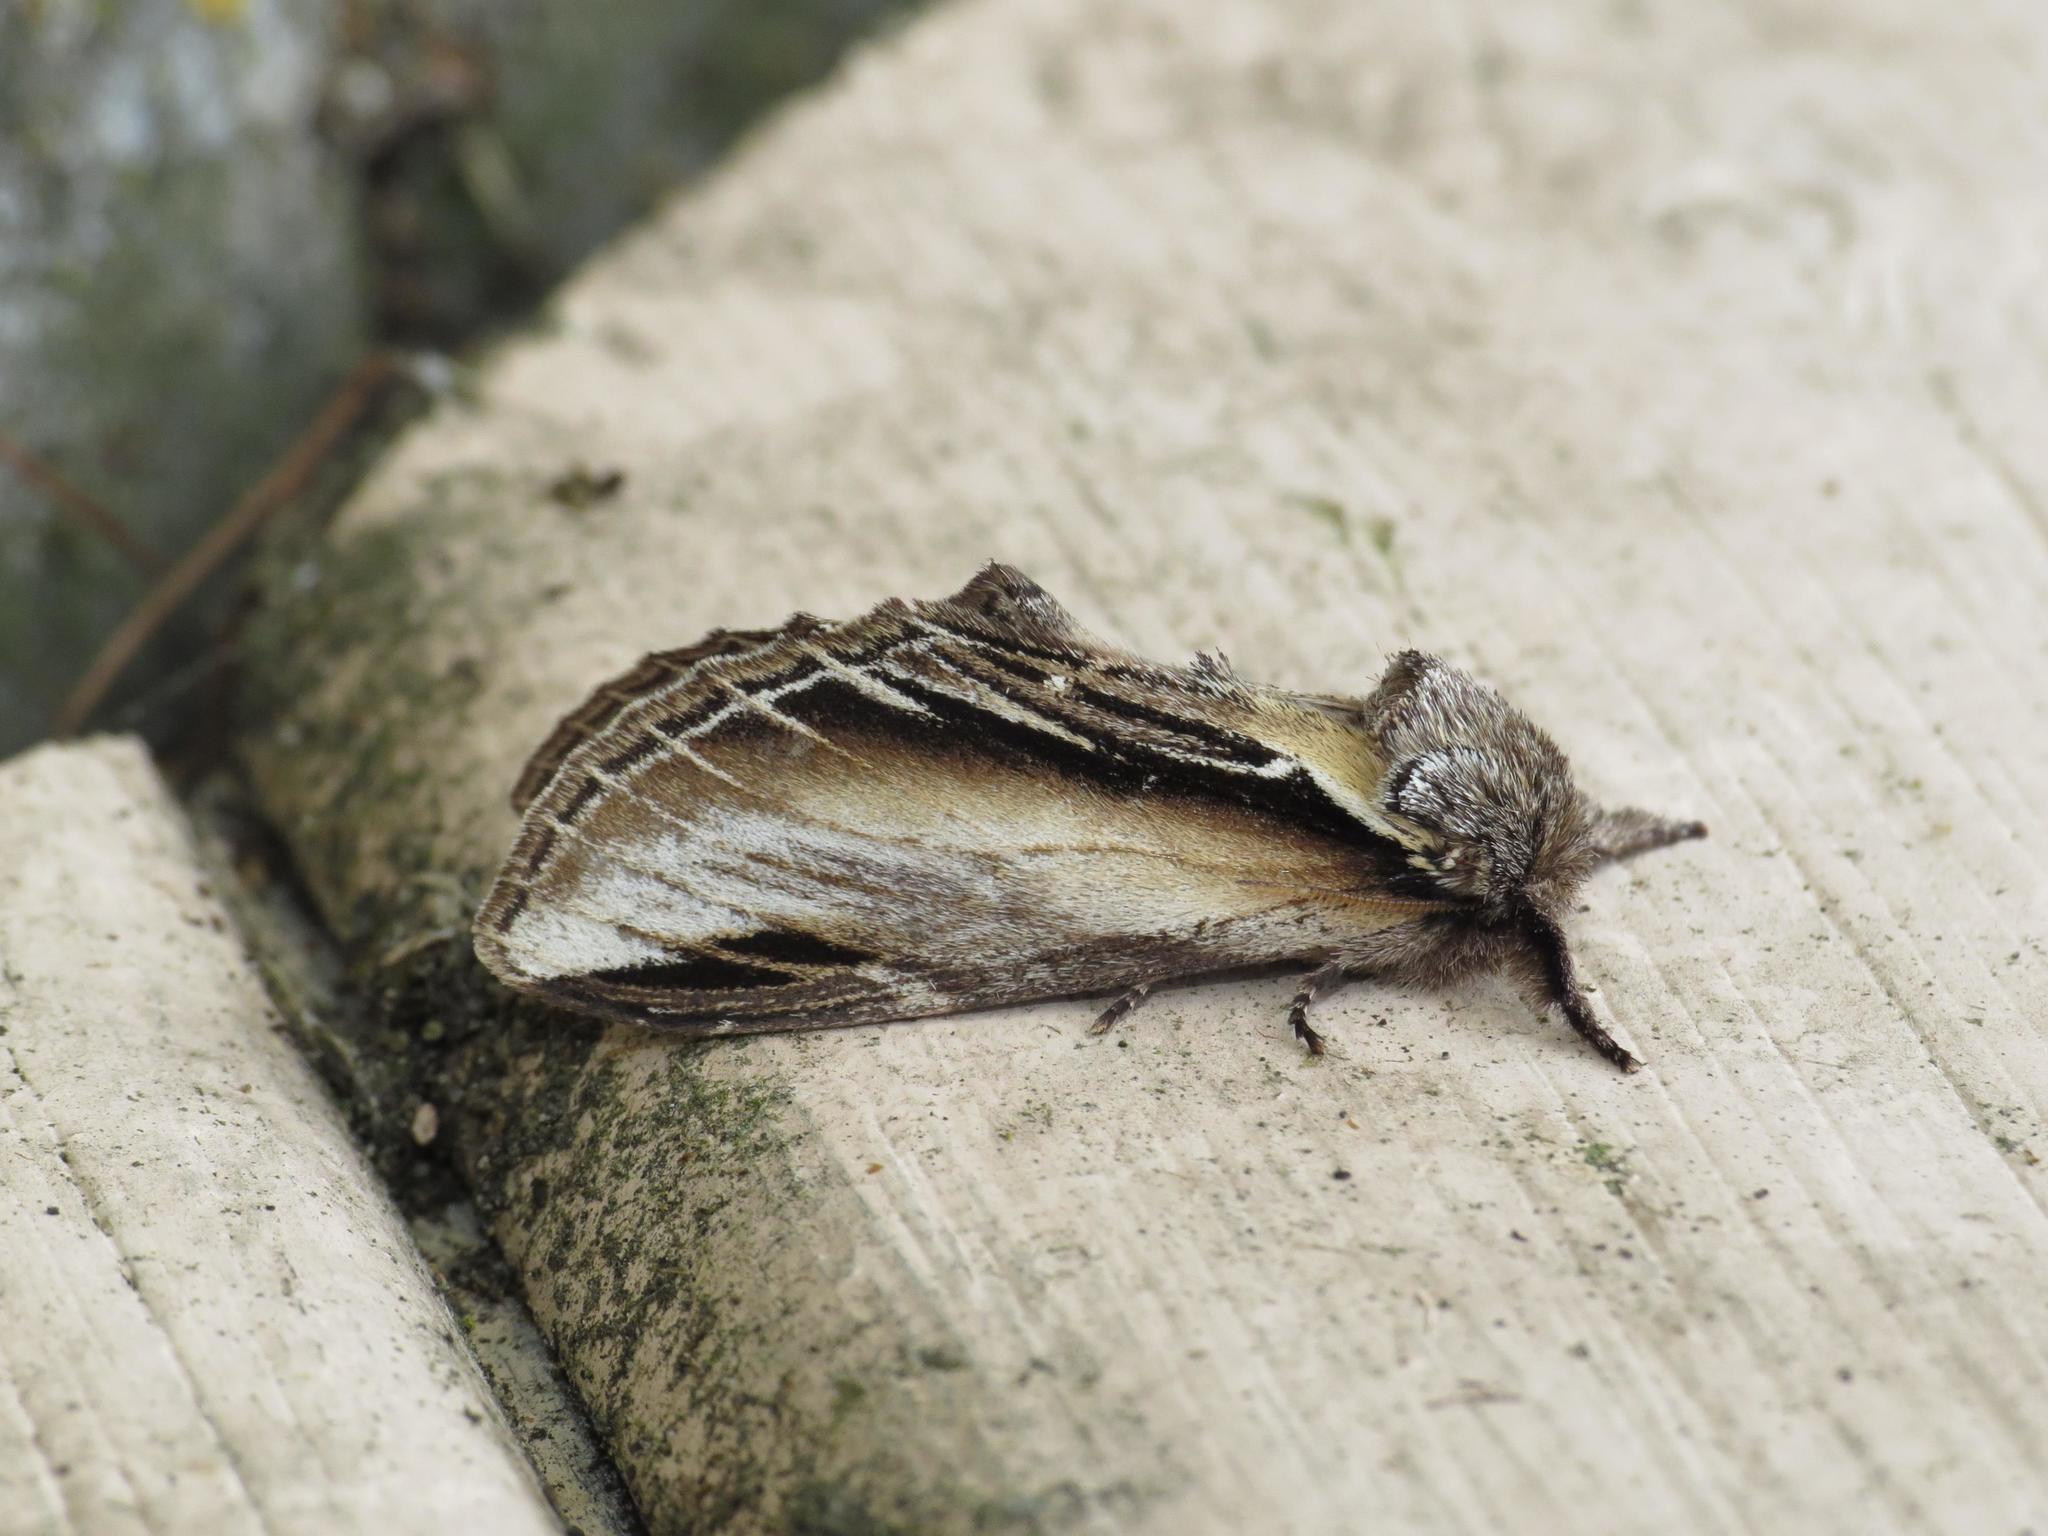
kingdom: Animalia
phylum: Arthropoda
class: Insecta
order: Lepidoptera
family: Notodontidae
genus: Pheosia
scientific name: Pheosia tremula
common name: Swallow prominent
